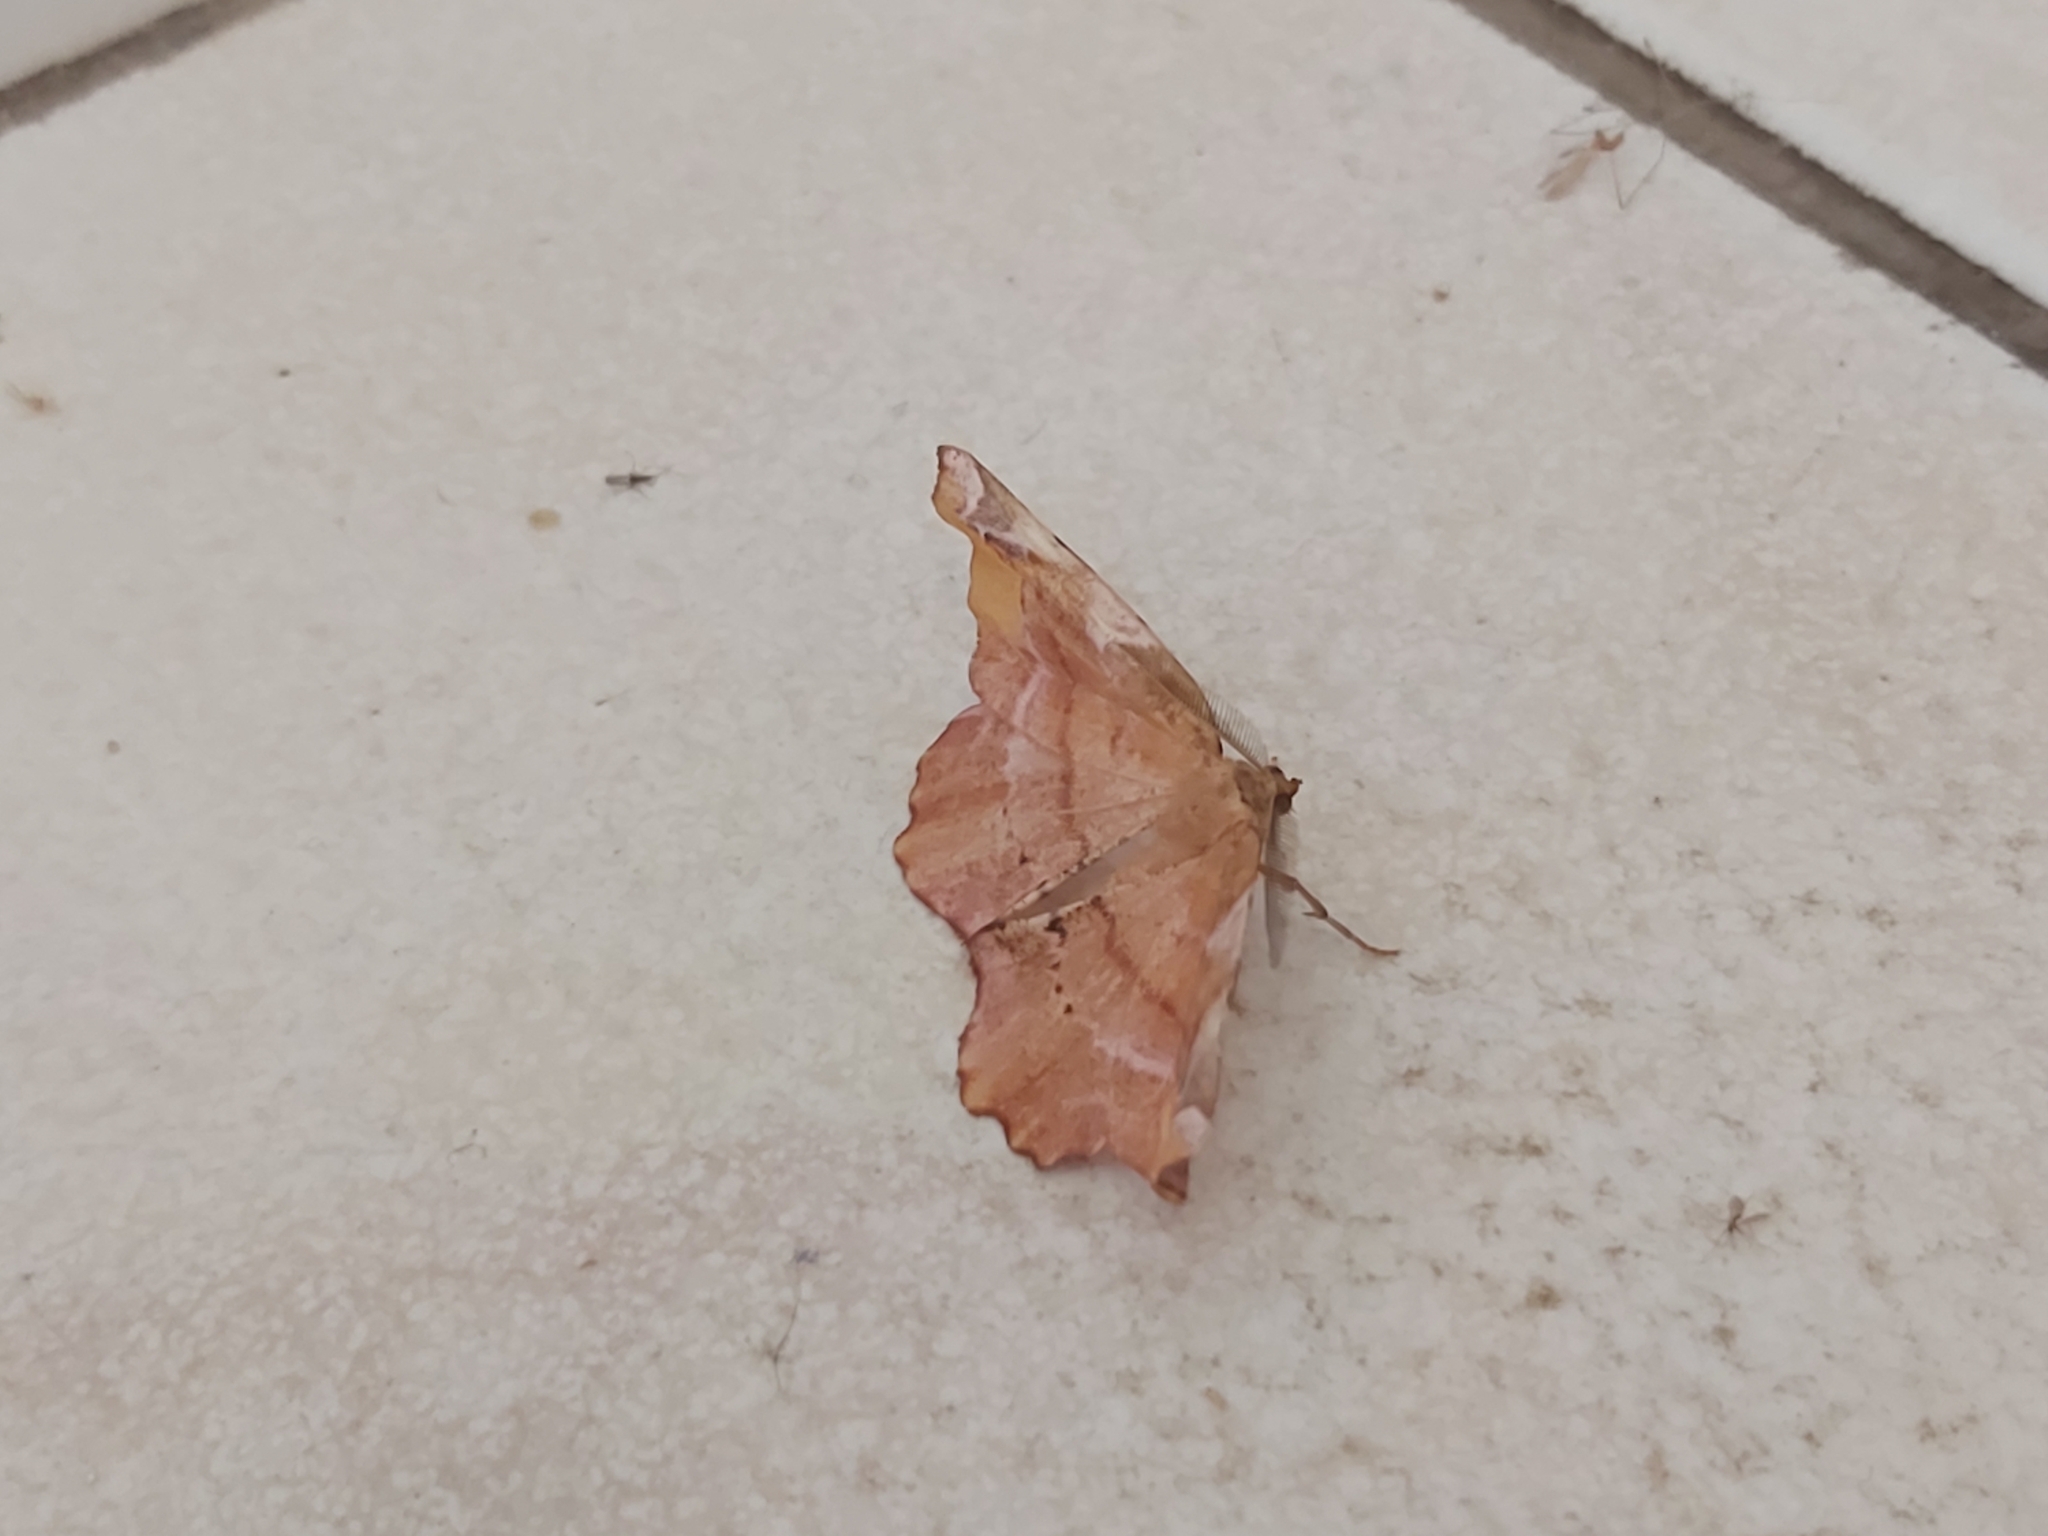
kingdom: Animalia
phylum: Arthropoda
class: Insecta
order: Lepidoptera
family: Geometridae
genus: Apeira
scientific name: Apeira syringaria
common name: Lilac beauty
